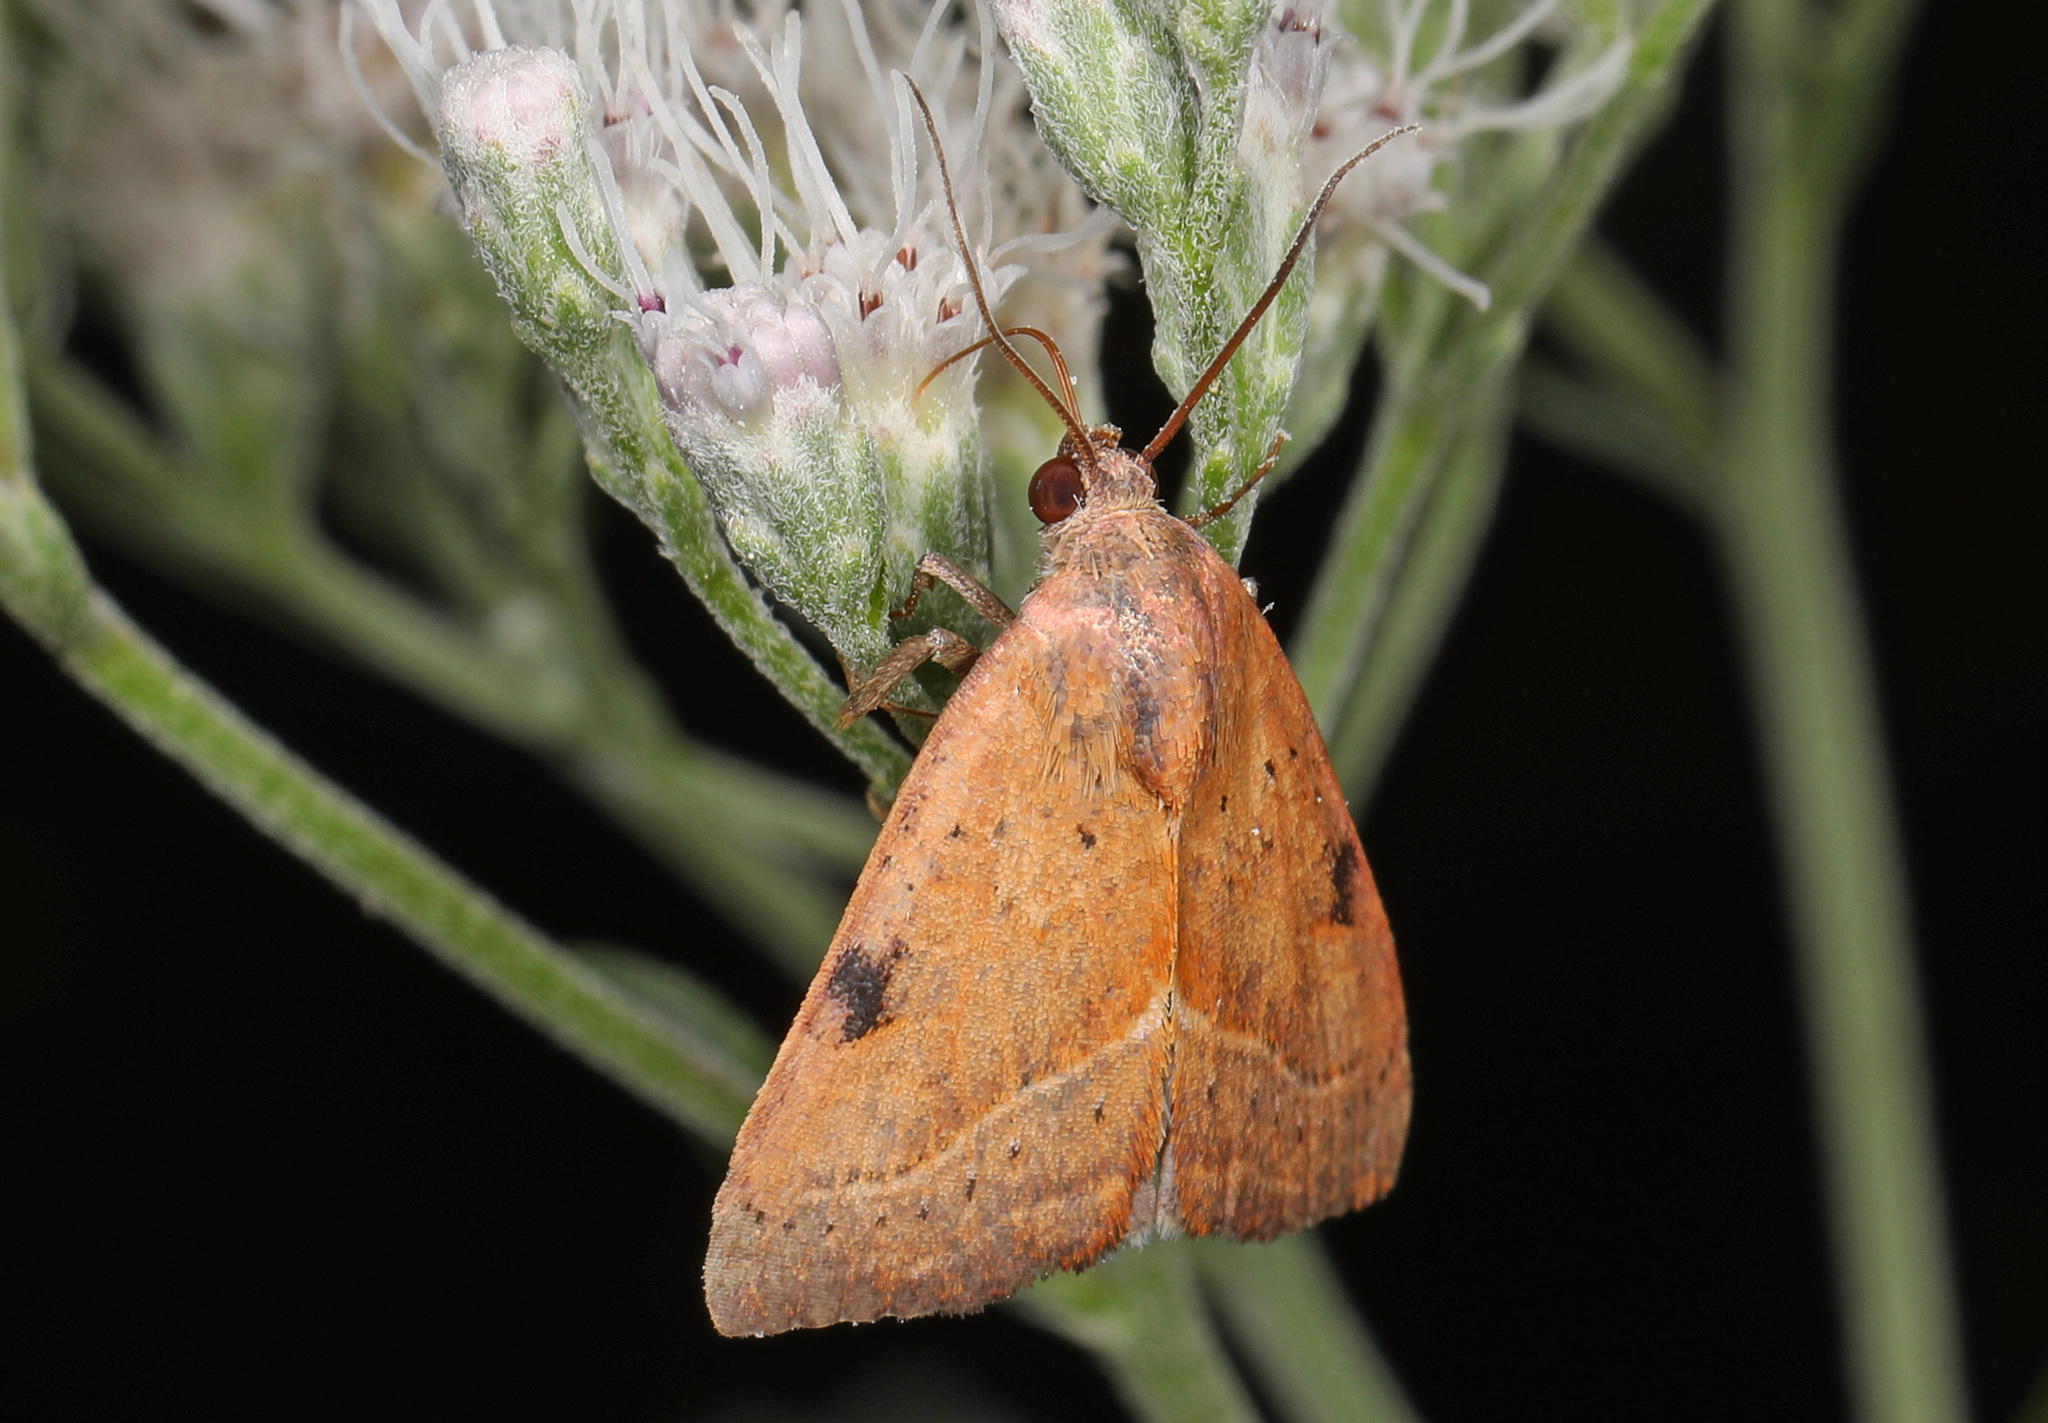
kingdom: Animalia
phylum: Arthropoda
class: Insecta
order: Lepidoptera
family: Noctuidae
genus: Galgula
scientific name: Galgula partita
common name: Wedgeling
